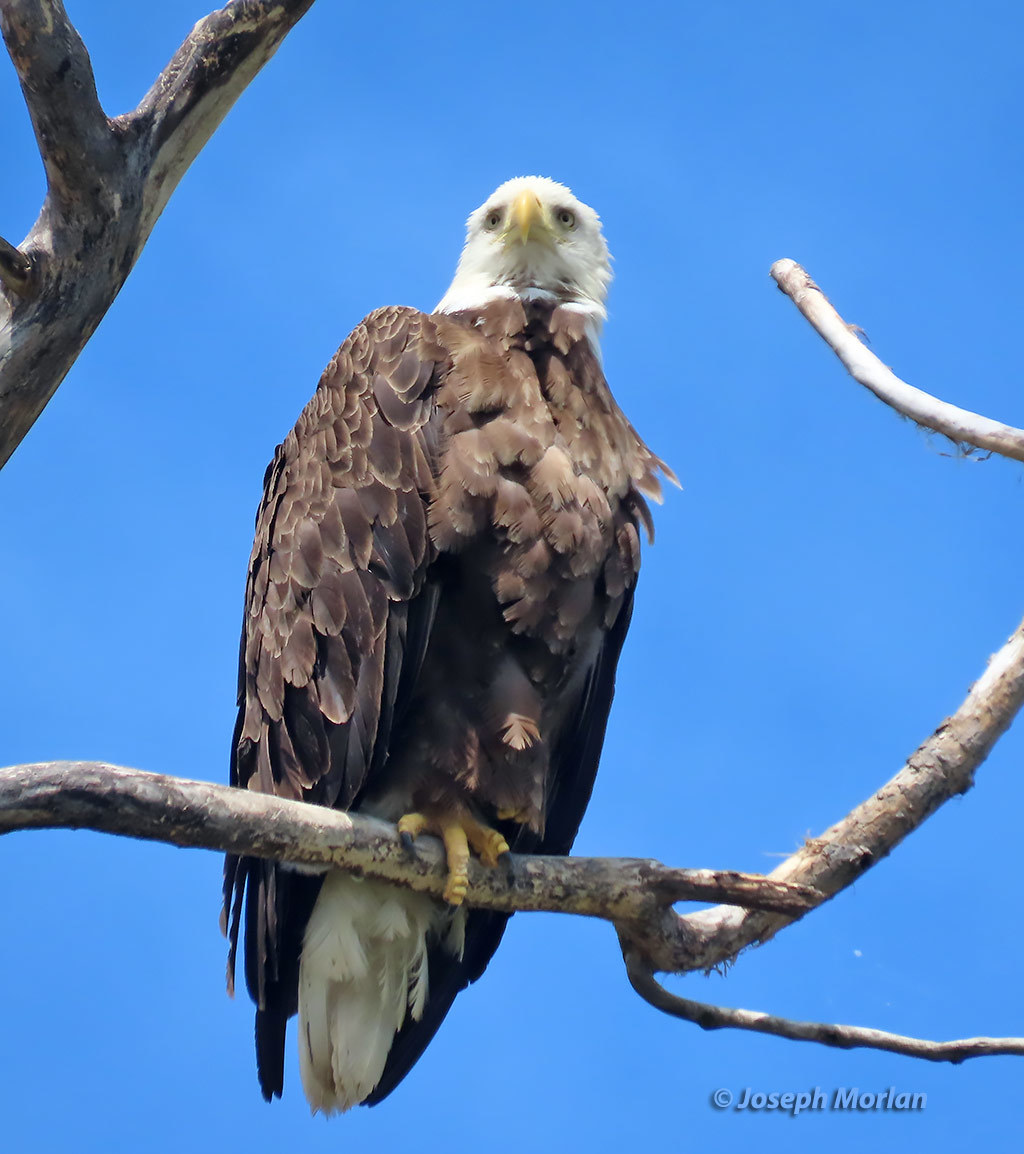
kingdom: Animalia
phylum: Chordata
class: Aves
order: Accipitriformes
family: Accipitridae
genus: Haliaeetus
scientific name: Haliaeetus leucocephalus
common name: Bald eagle
